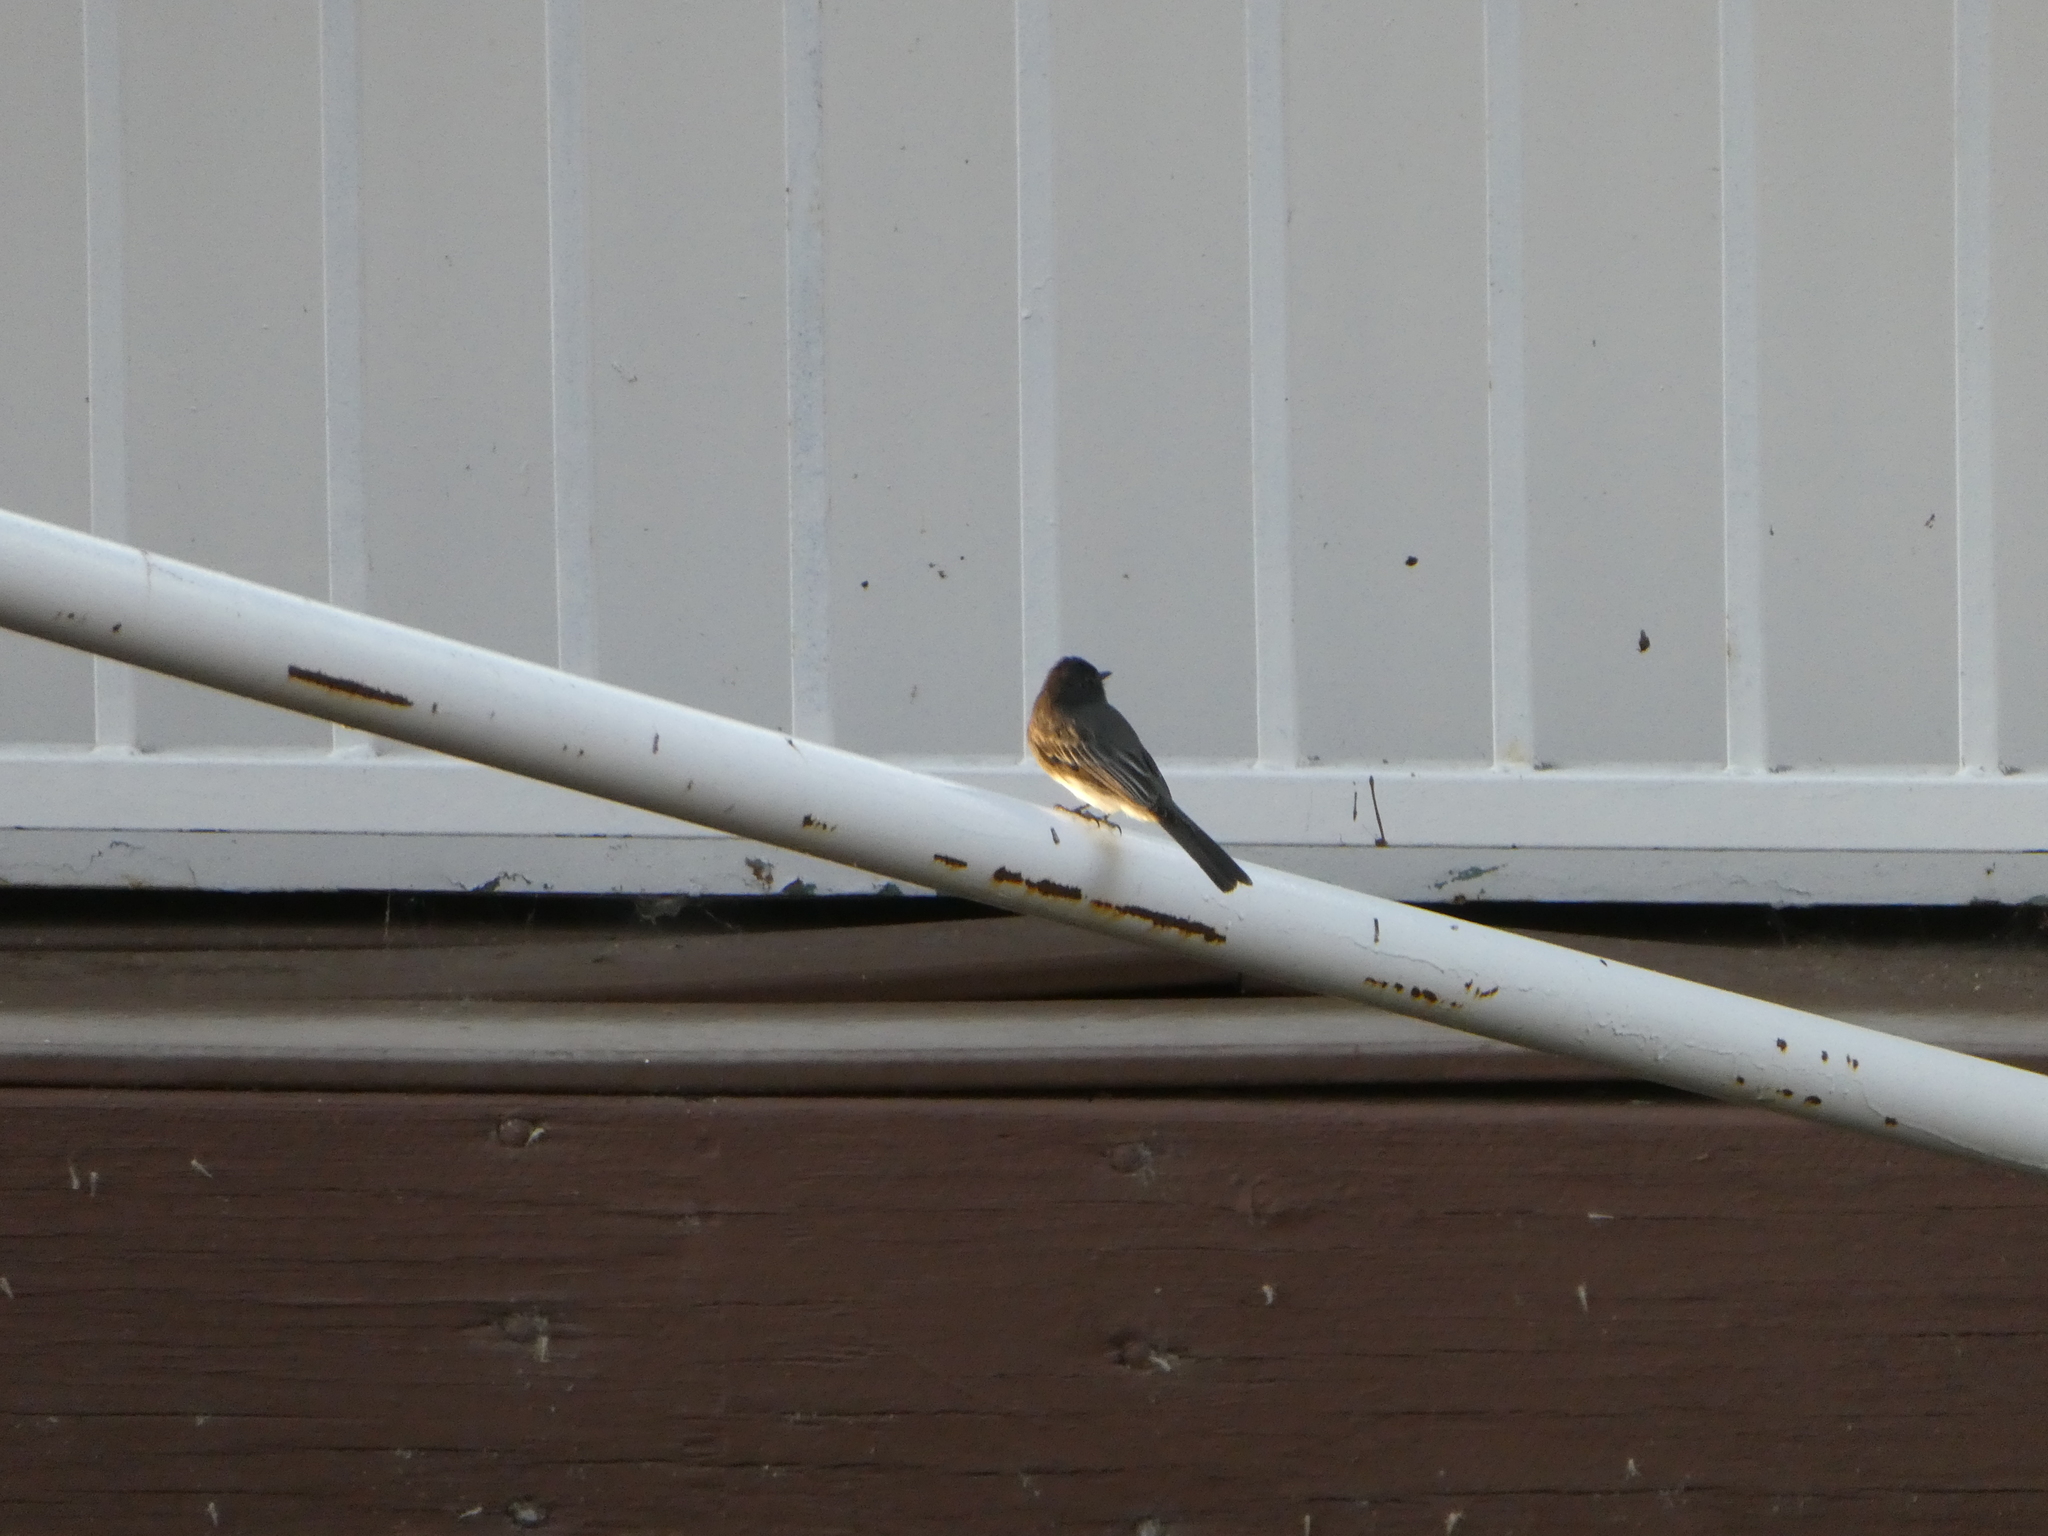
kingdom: Animalia
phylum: Chordata
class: Aves
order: Passeriformes
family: Tyrannidae
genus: Sayornis
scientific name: Sayornis nigricans
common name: Black phoebe
